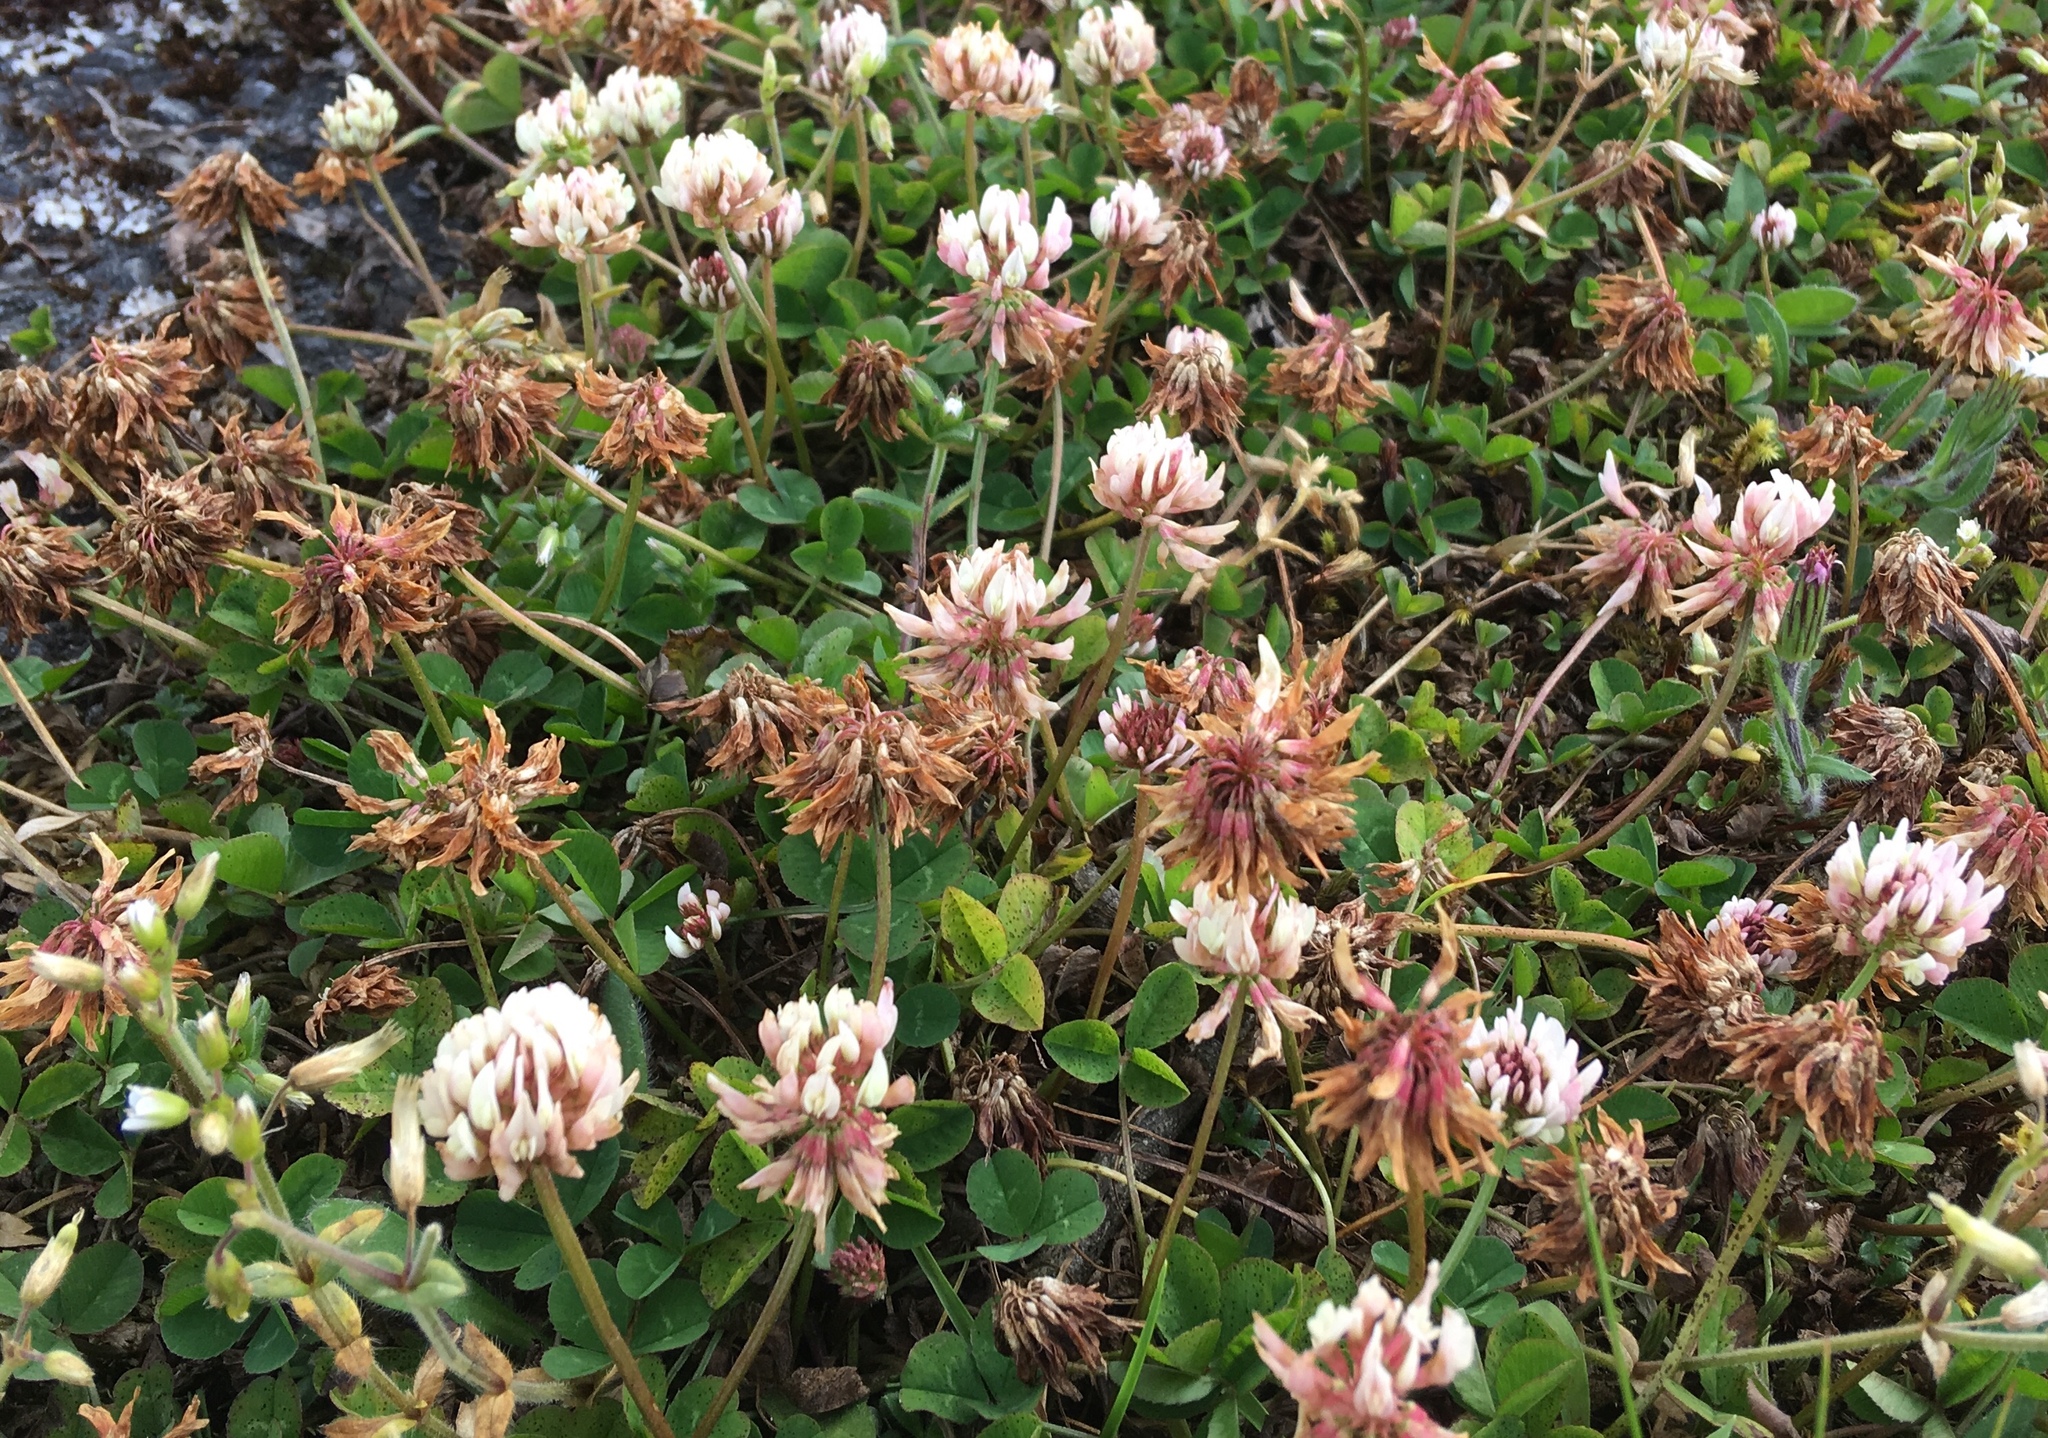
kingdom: Plantae
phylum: Tracheophyta
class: Magnoliopsida
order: Fabales
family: Fabaceae
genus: Trifolium
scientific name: Trifolium repens
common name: White clover
